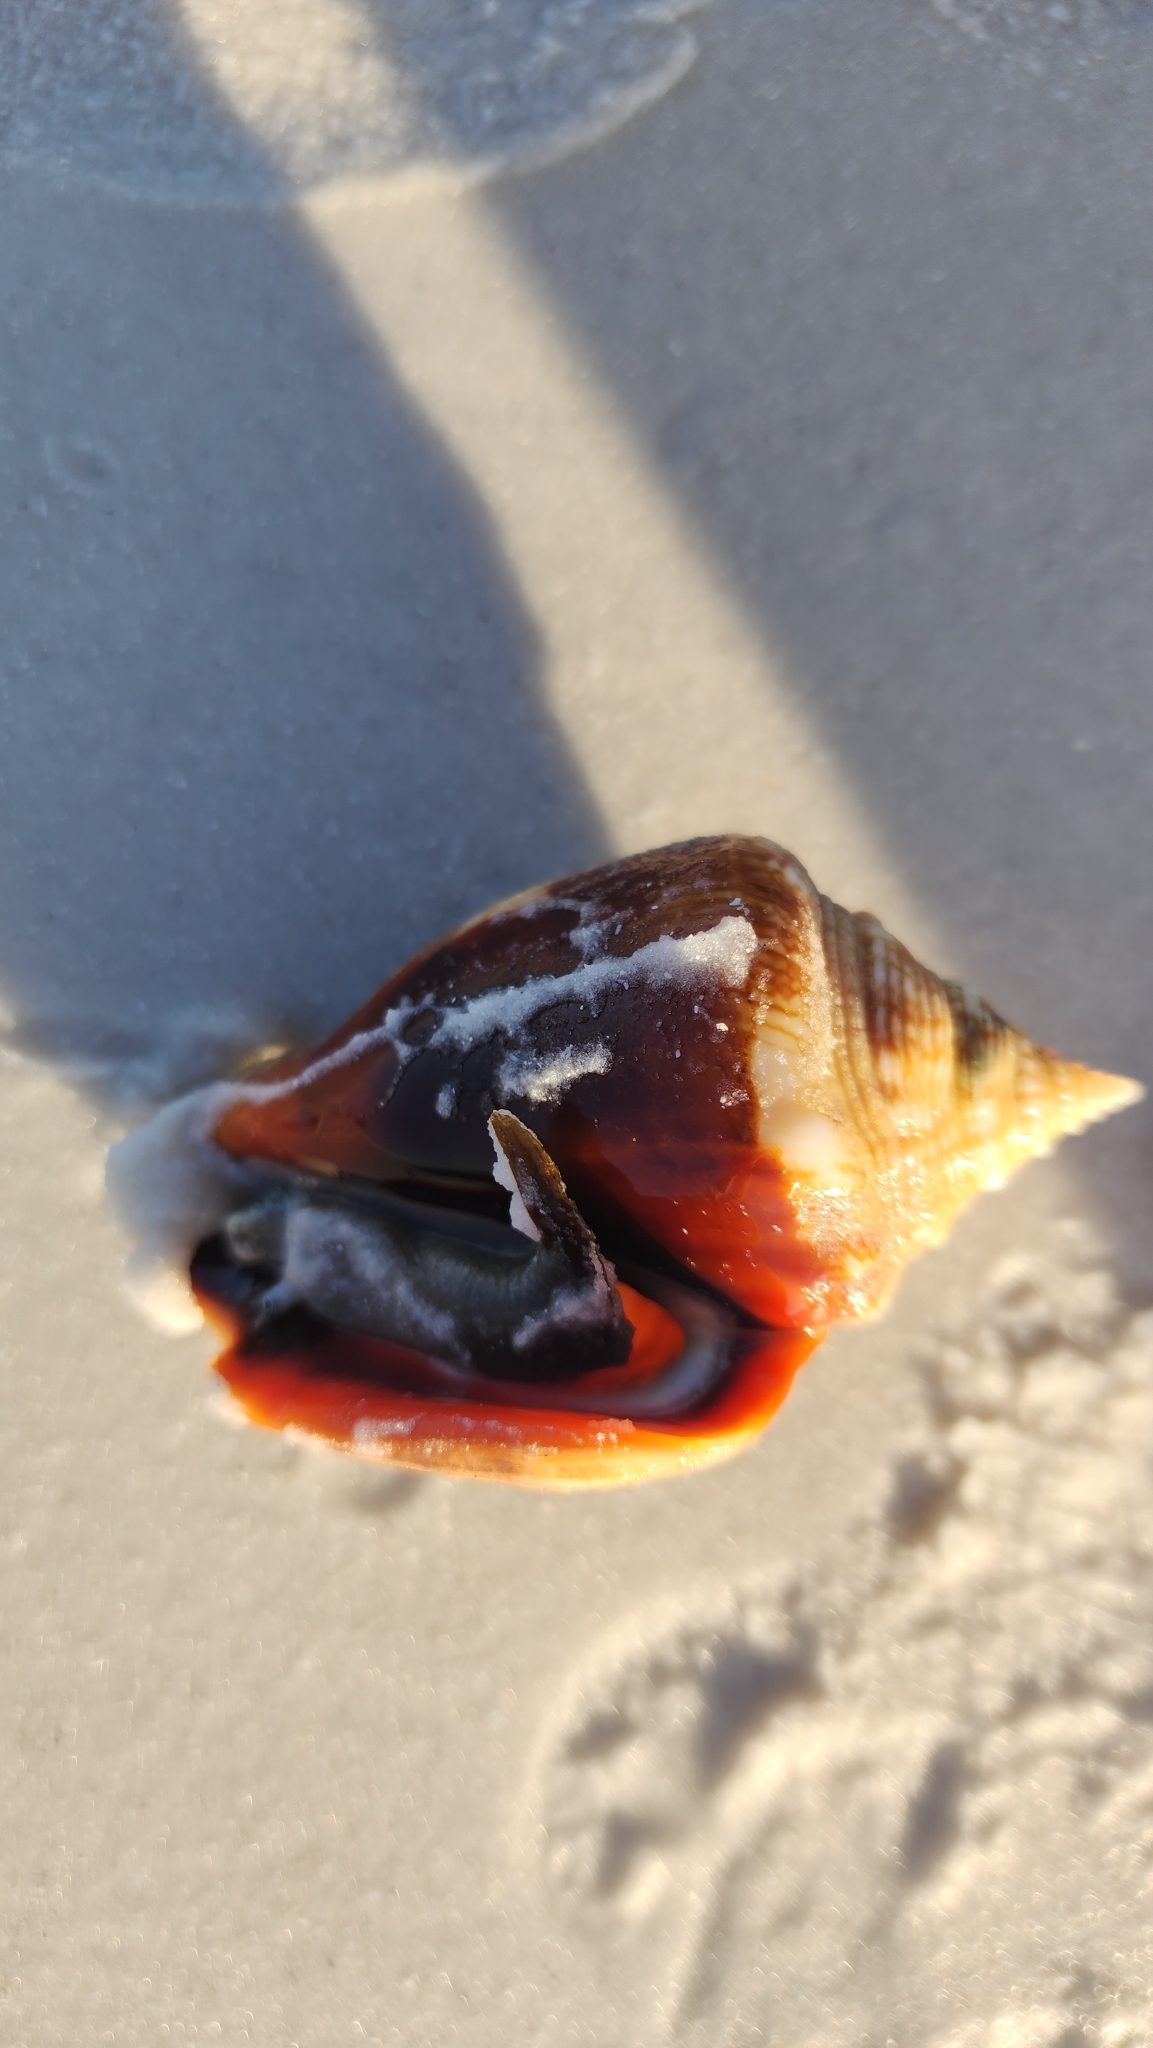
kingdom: Animalia
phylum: Mollusca
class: Gastropoda
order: Littorinimorpha
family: Strombidae
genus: Strombus
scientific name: Strombus alatus
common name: Florida fighting conch
